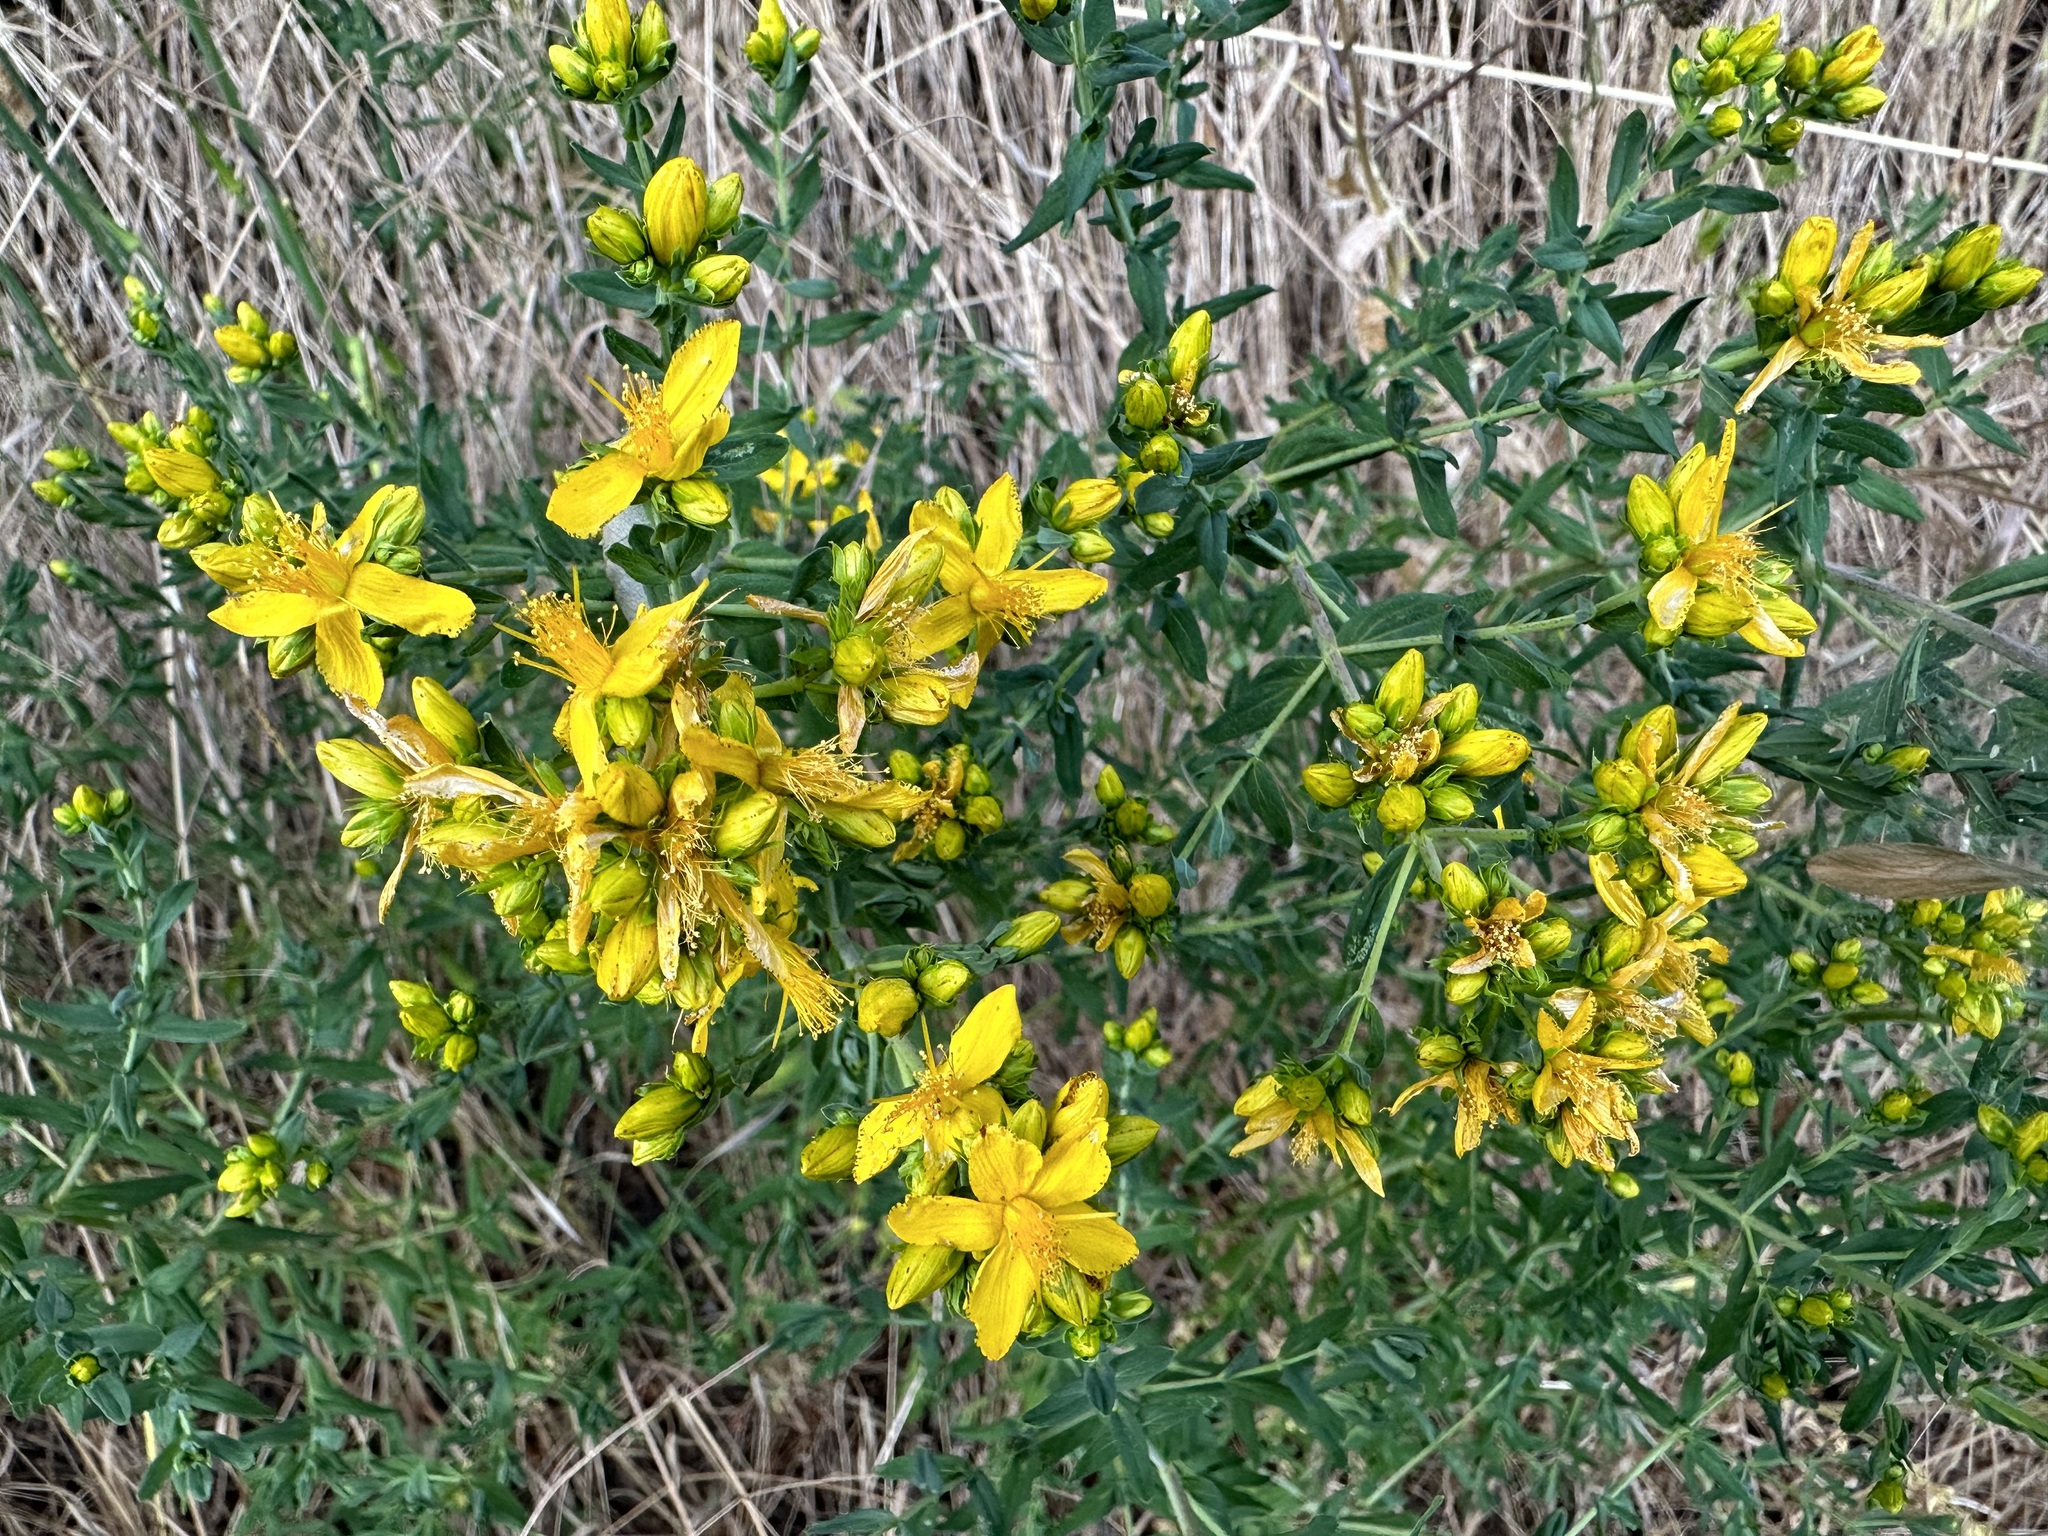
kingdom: Plantae
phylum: Tracheophyta
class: Magnoliopsida
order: Malpighiales
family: Hypericaceae
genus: Hypericum
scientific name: Hypericum perforatum
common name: Common st. johnswort
